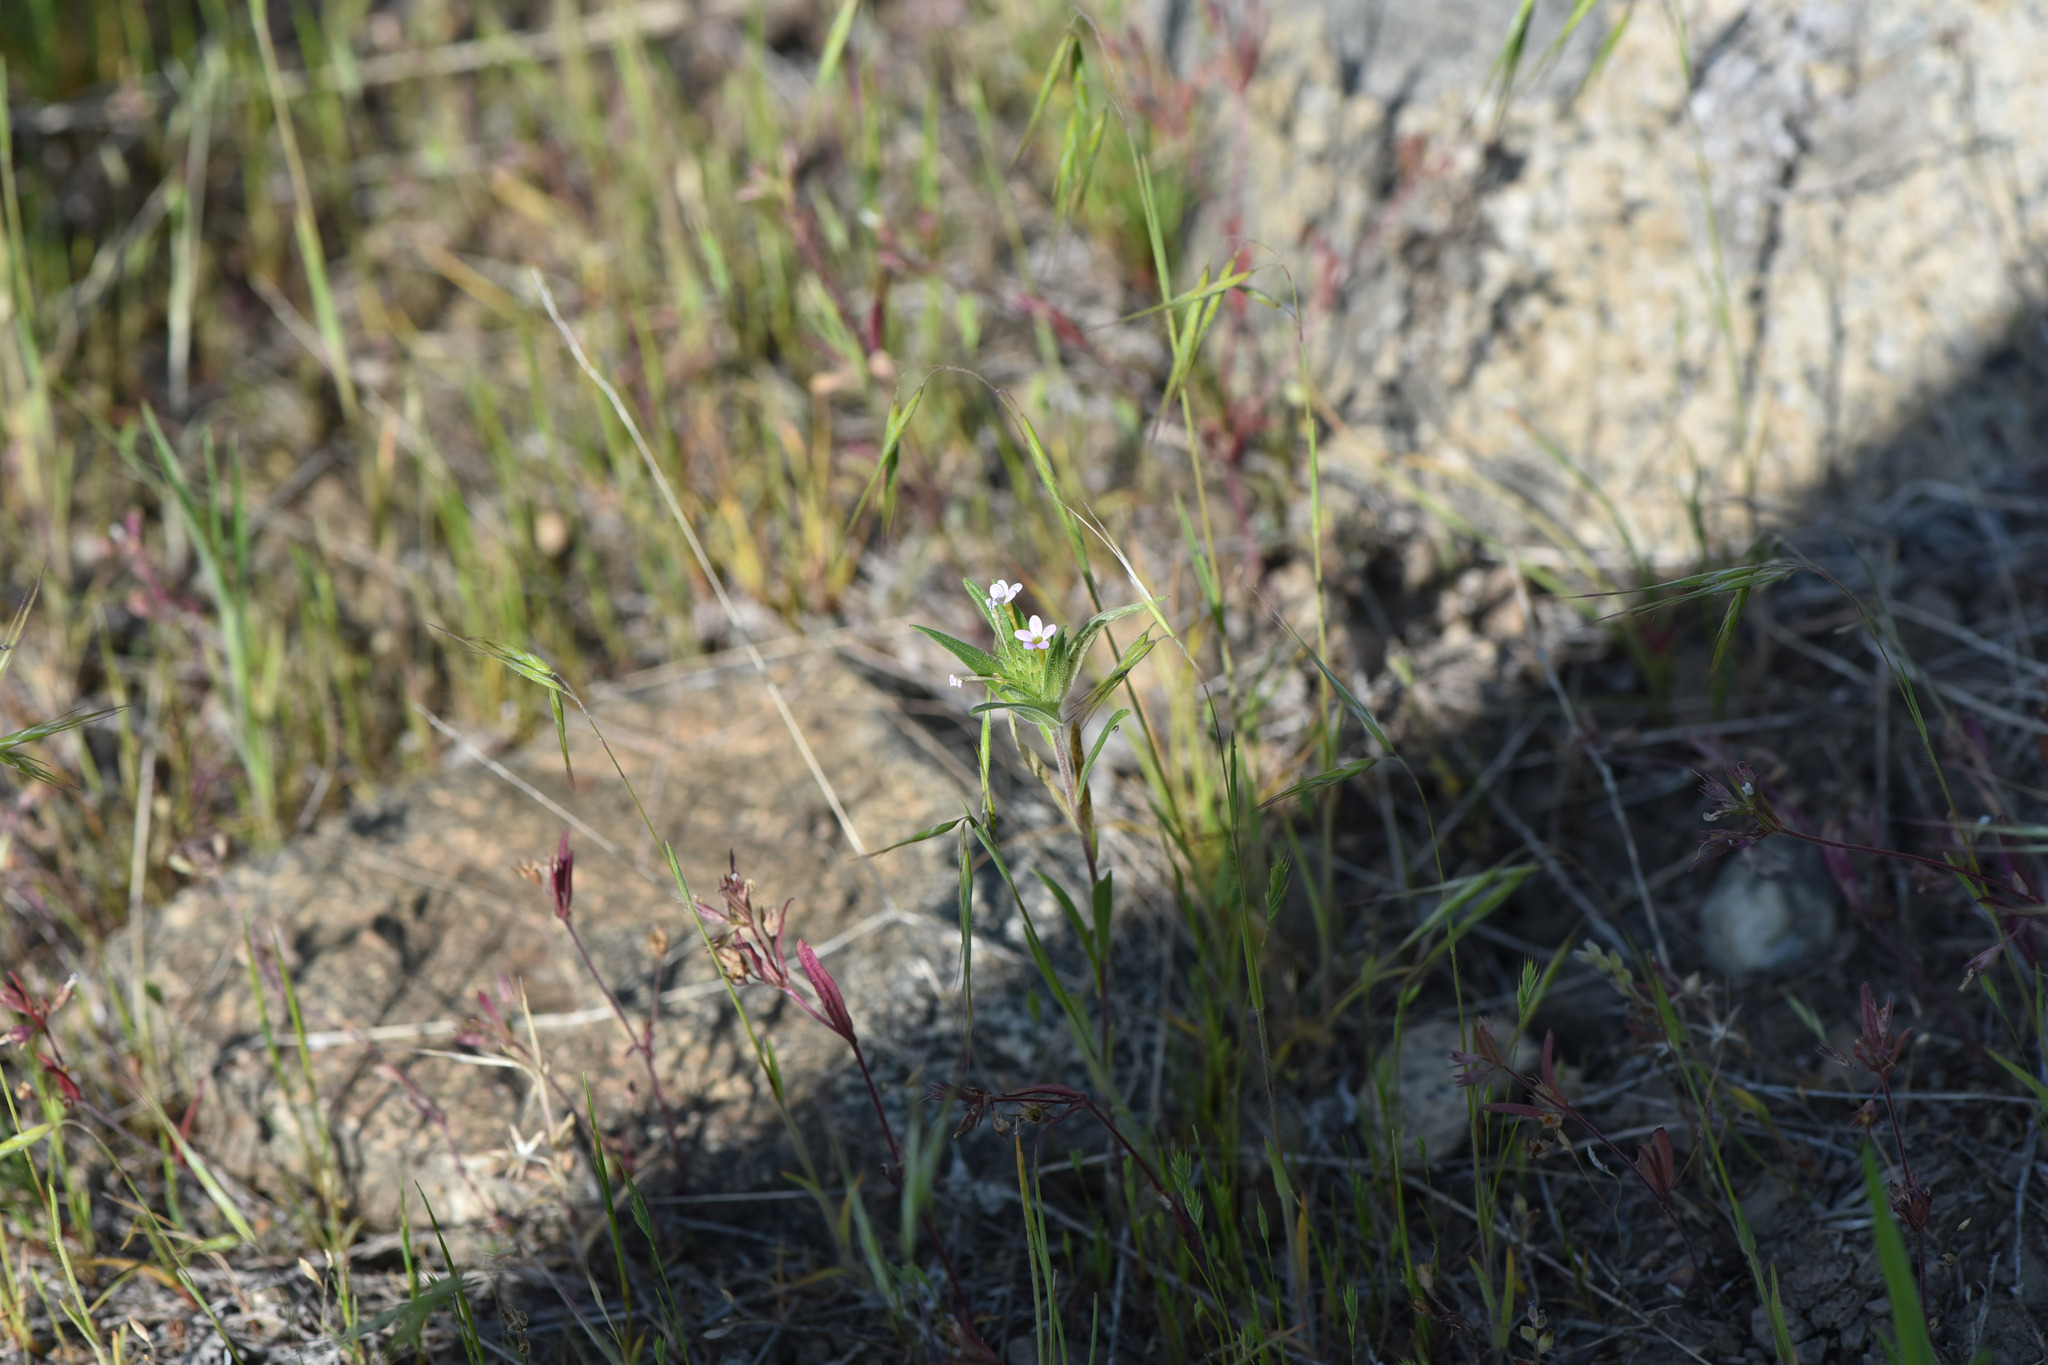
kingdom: Plantae
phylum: Tracheophyta
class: Magnoliopsida
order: Ericales
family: Polemoniaceae
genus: Collomia
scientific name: Collomia linearis
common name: Tiny trumpet
